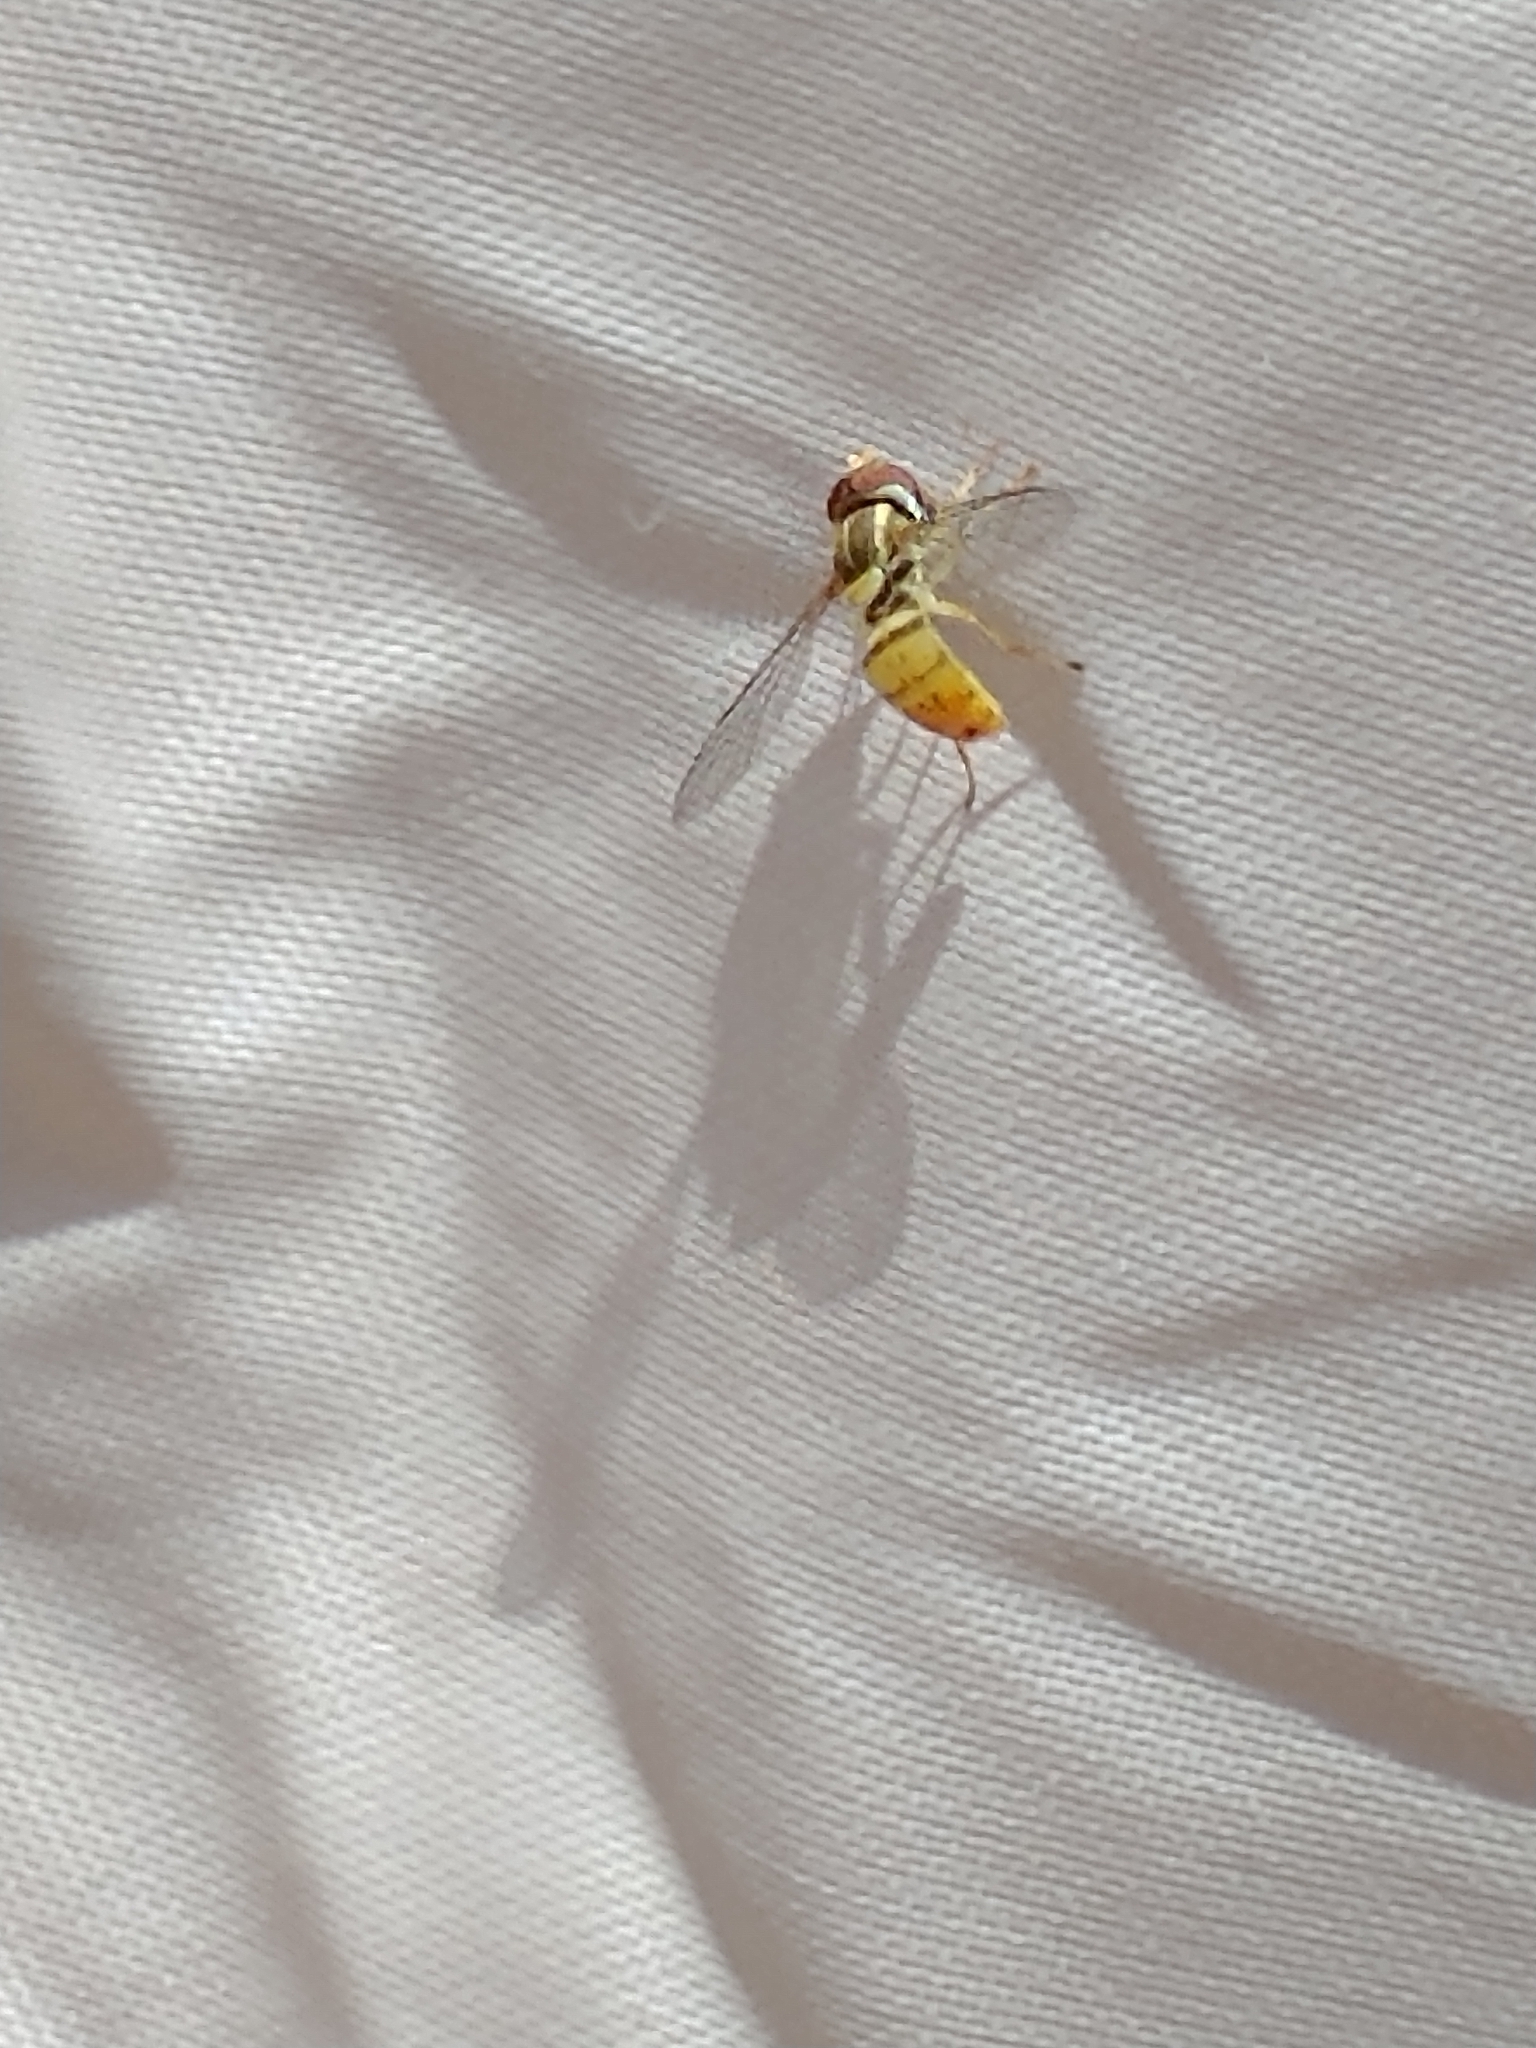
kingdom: Animalia
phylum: Arthropoda
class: Insecta
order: Diptera
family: Syrphidae
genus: Toxomerus
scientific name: Toxomerus marginatus
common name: Syrphid fly
